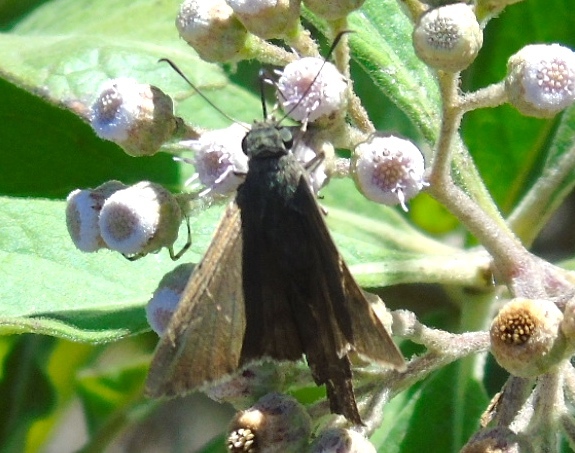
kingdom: Animalia
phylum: Arthropoda
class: Insecta
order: Lepidoptera
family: Hesperiidae
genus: Urbanus
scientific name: Urbanus procne
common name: Brown longtail
